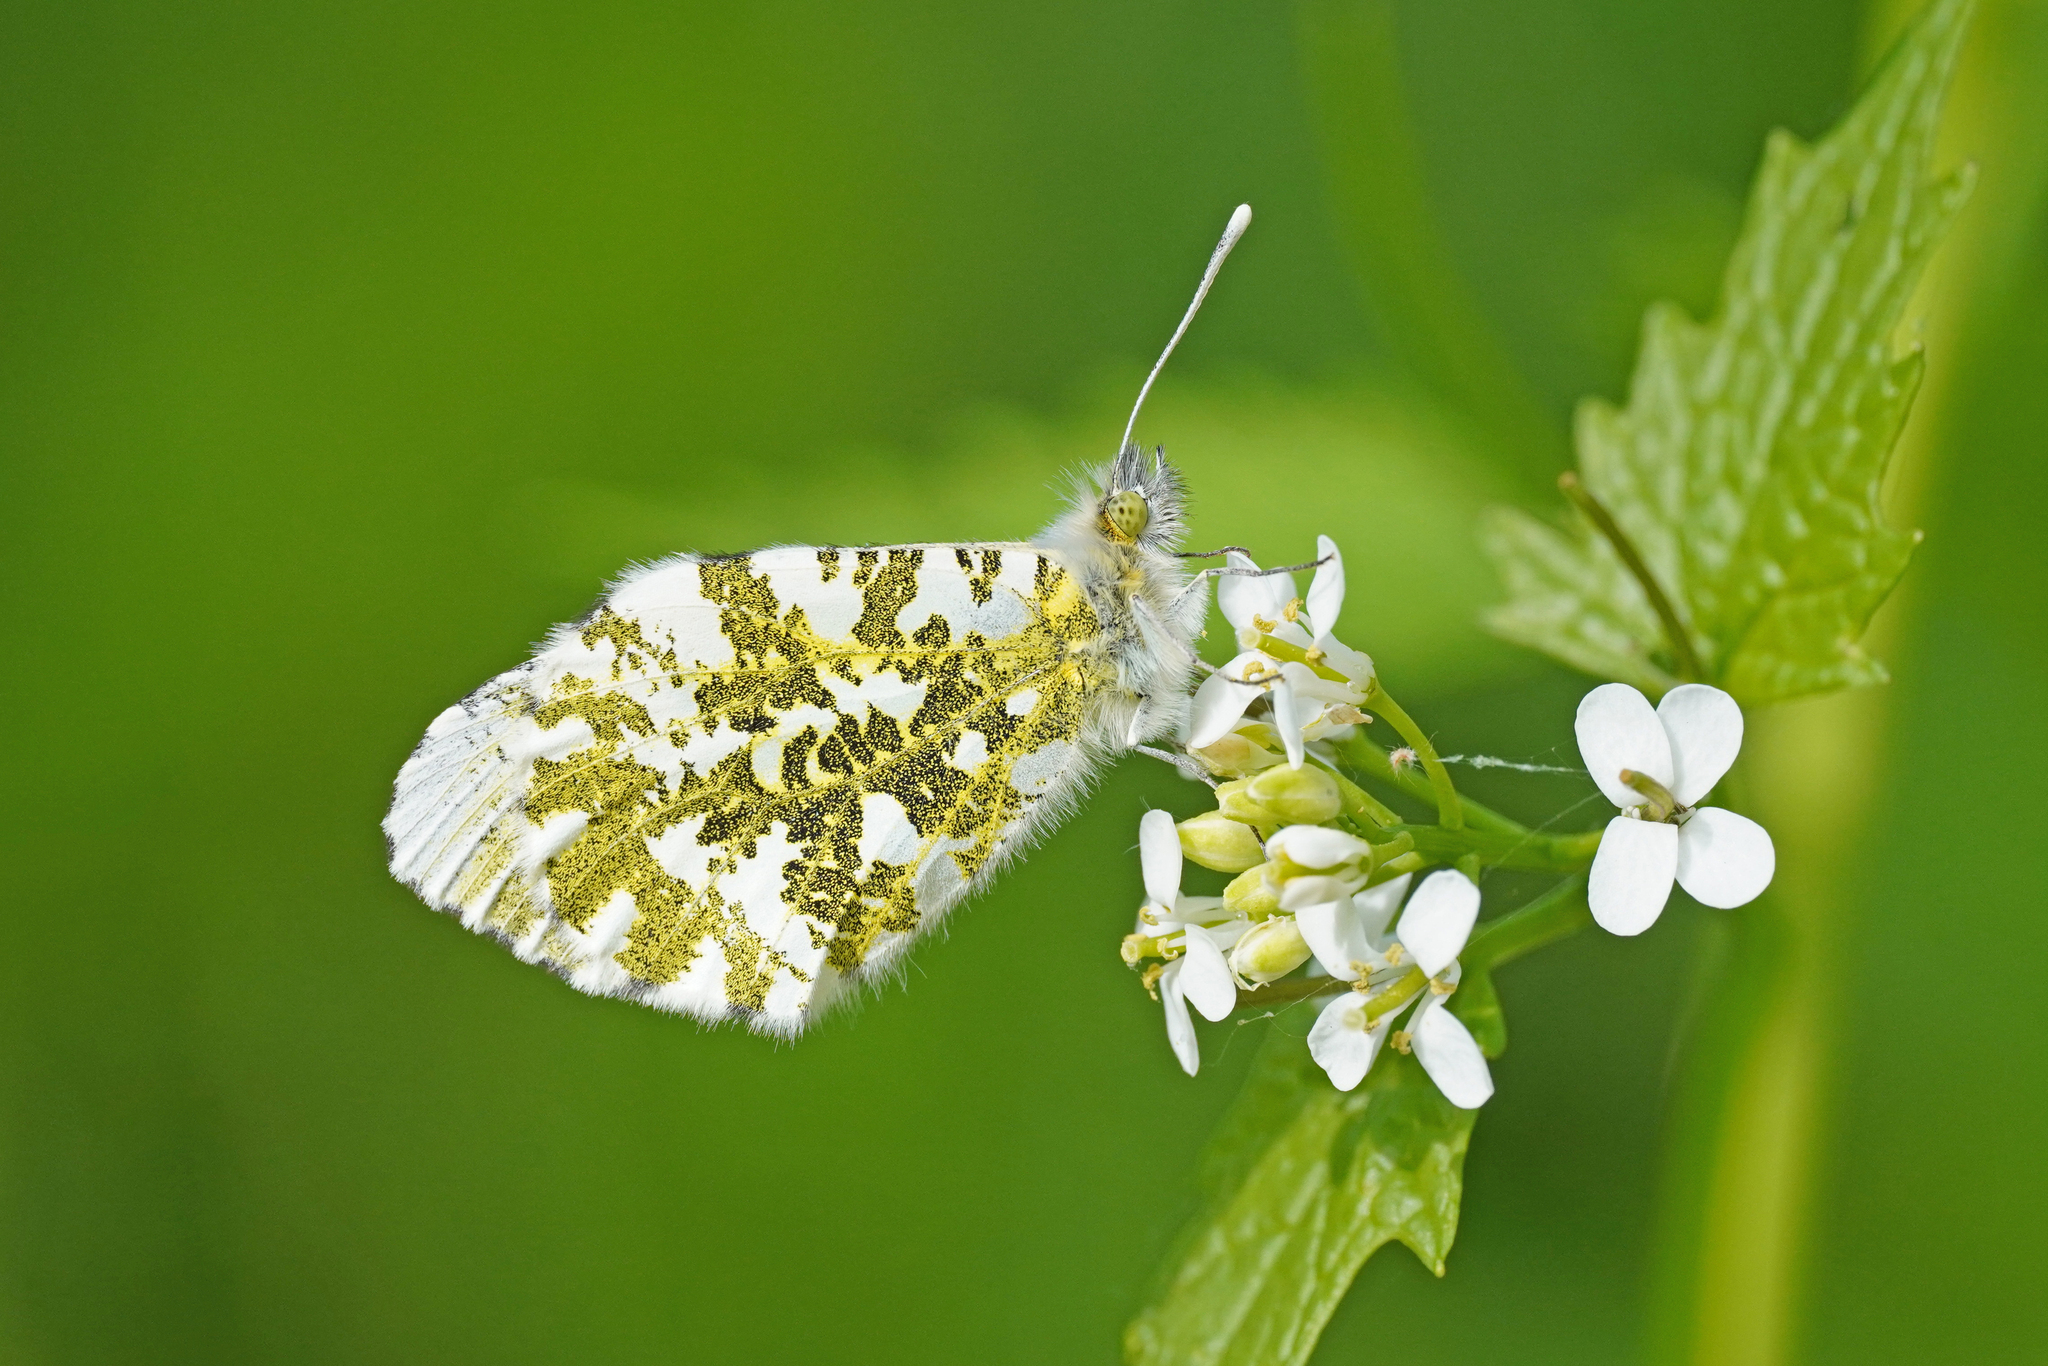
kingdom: Animalia
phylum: Arthropoda
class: Insecta
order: Lepidoptera
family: Pieridae
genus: Anthocharis
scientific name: Anthocharis cardamines
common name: Orange-tip
